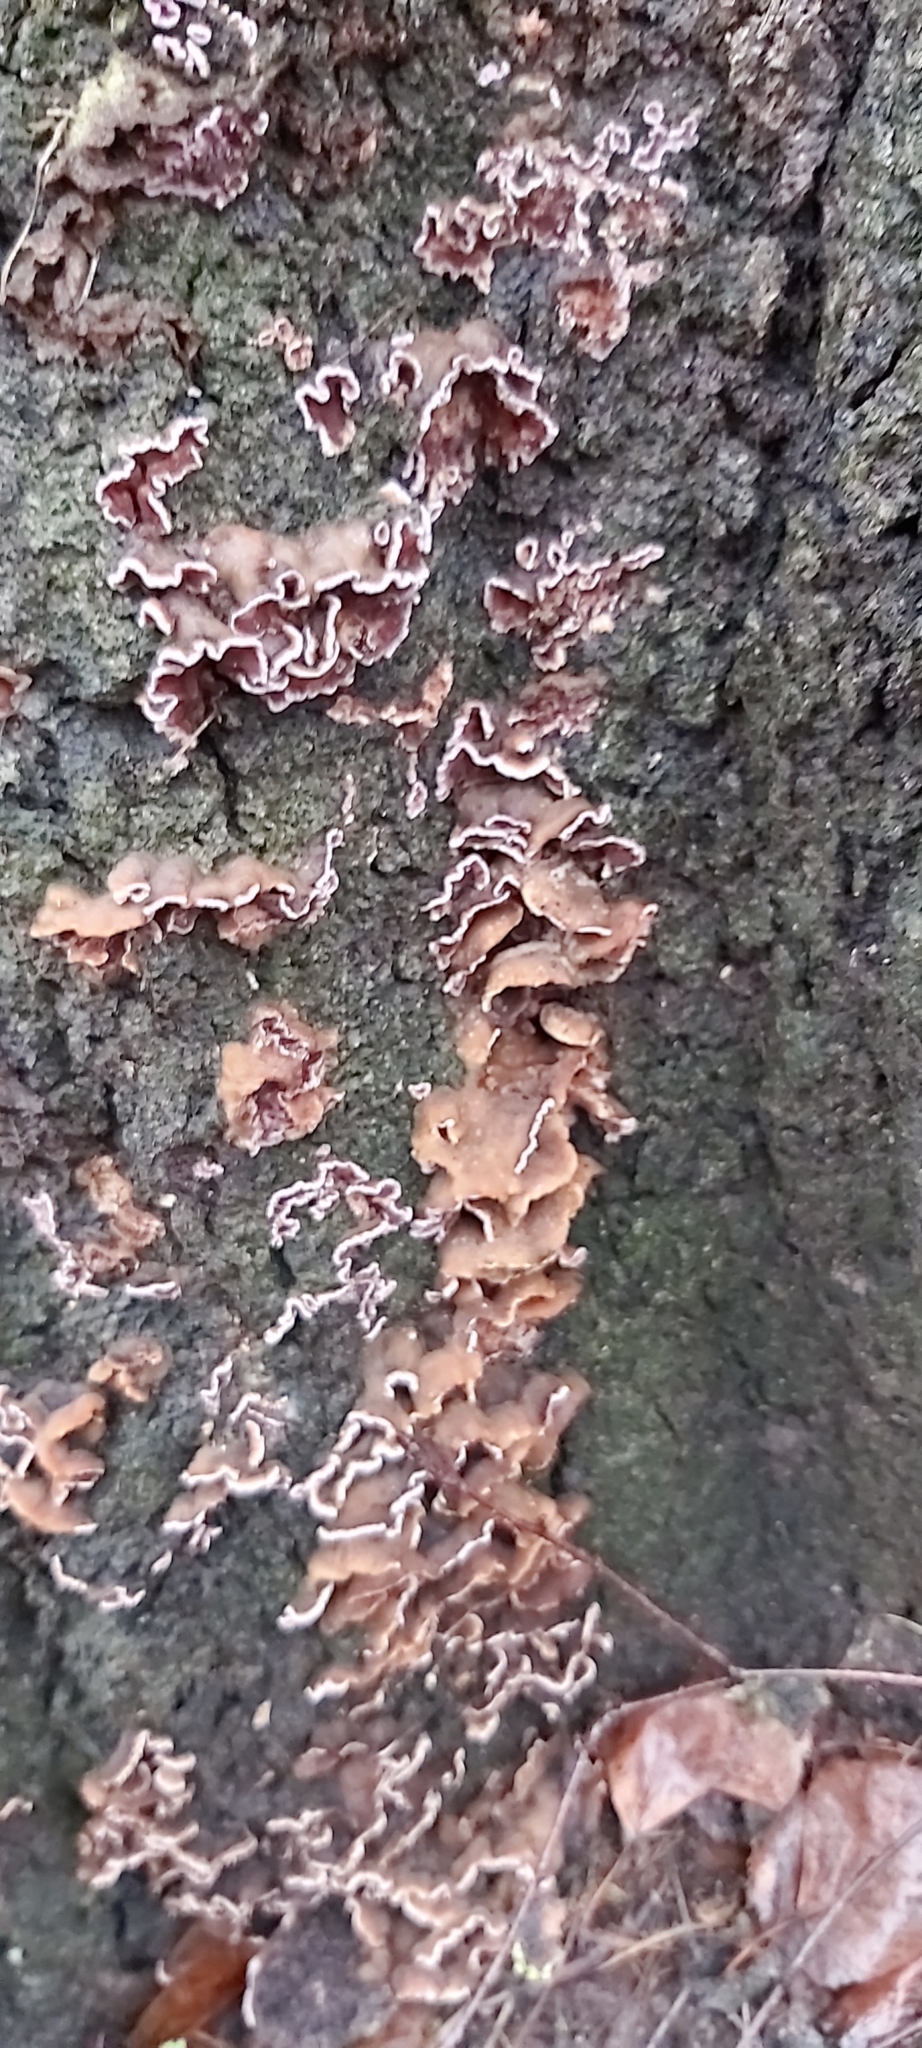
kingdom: Fungi
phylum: Basidiomycota
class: Agaricomycetes
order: Agaricales
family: Cyphellaceae
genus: Chondrostereum
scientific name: Chondrostereum purpureum
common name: Silver leaf disease
